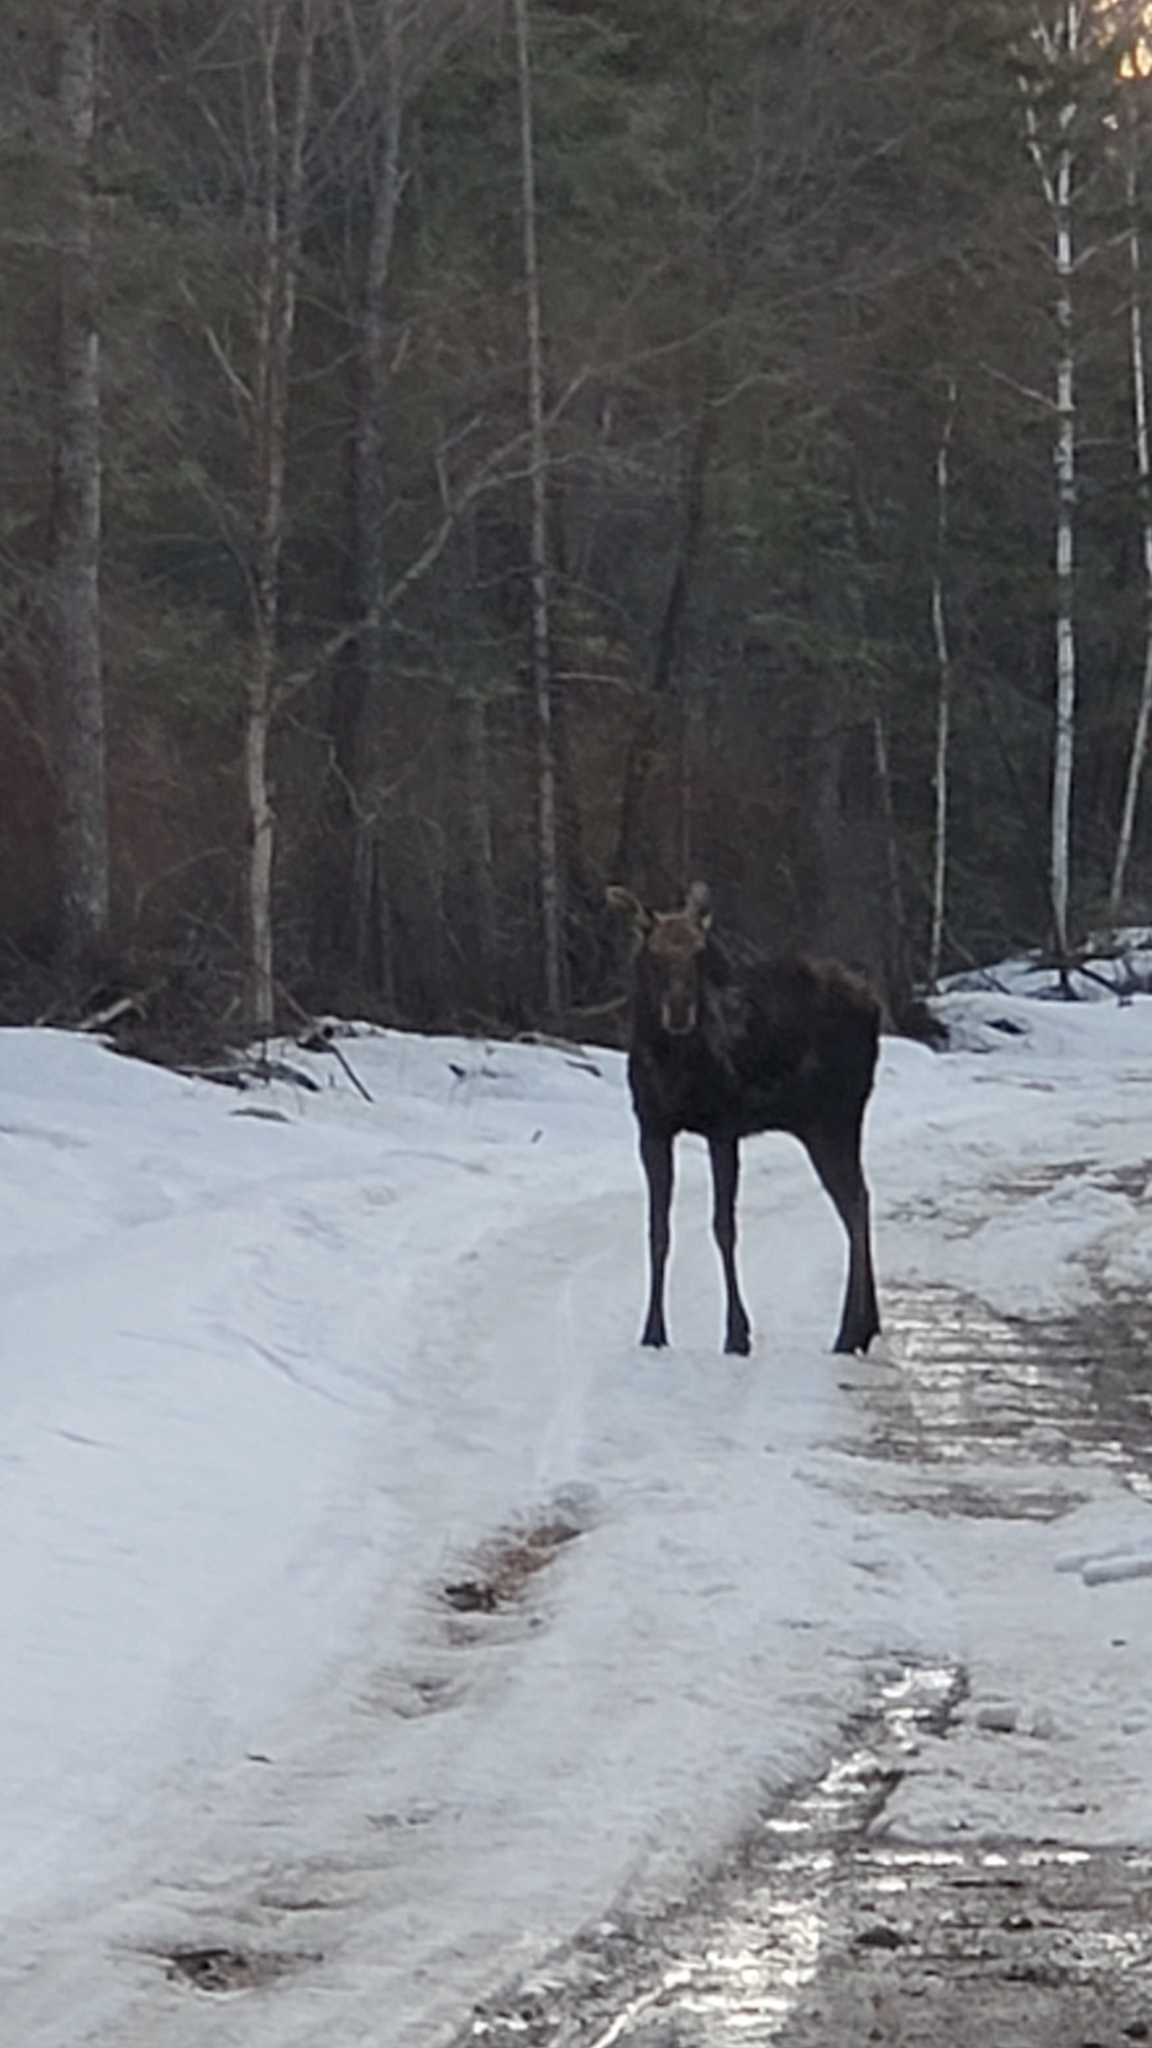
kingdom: Animalia
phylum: Chordata
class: Mammalia
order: Artiodactyla
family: Cervidae
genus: Alces
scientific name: Alces americanus
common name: Moose
